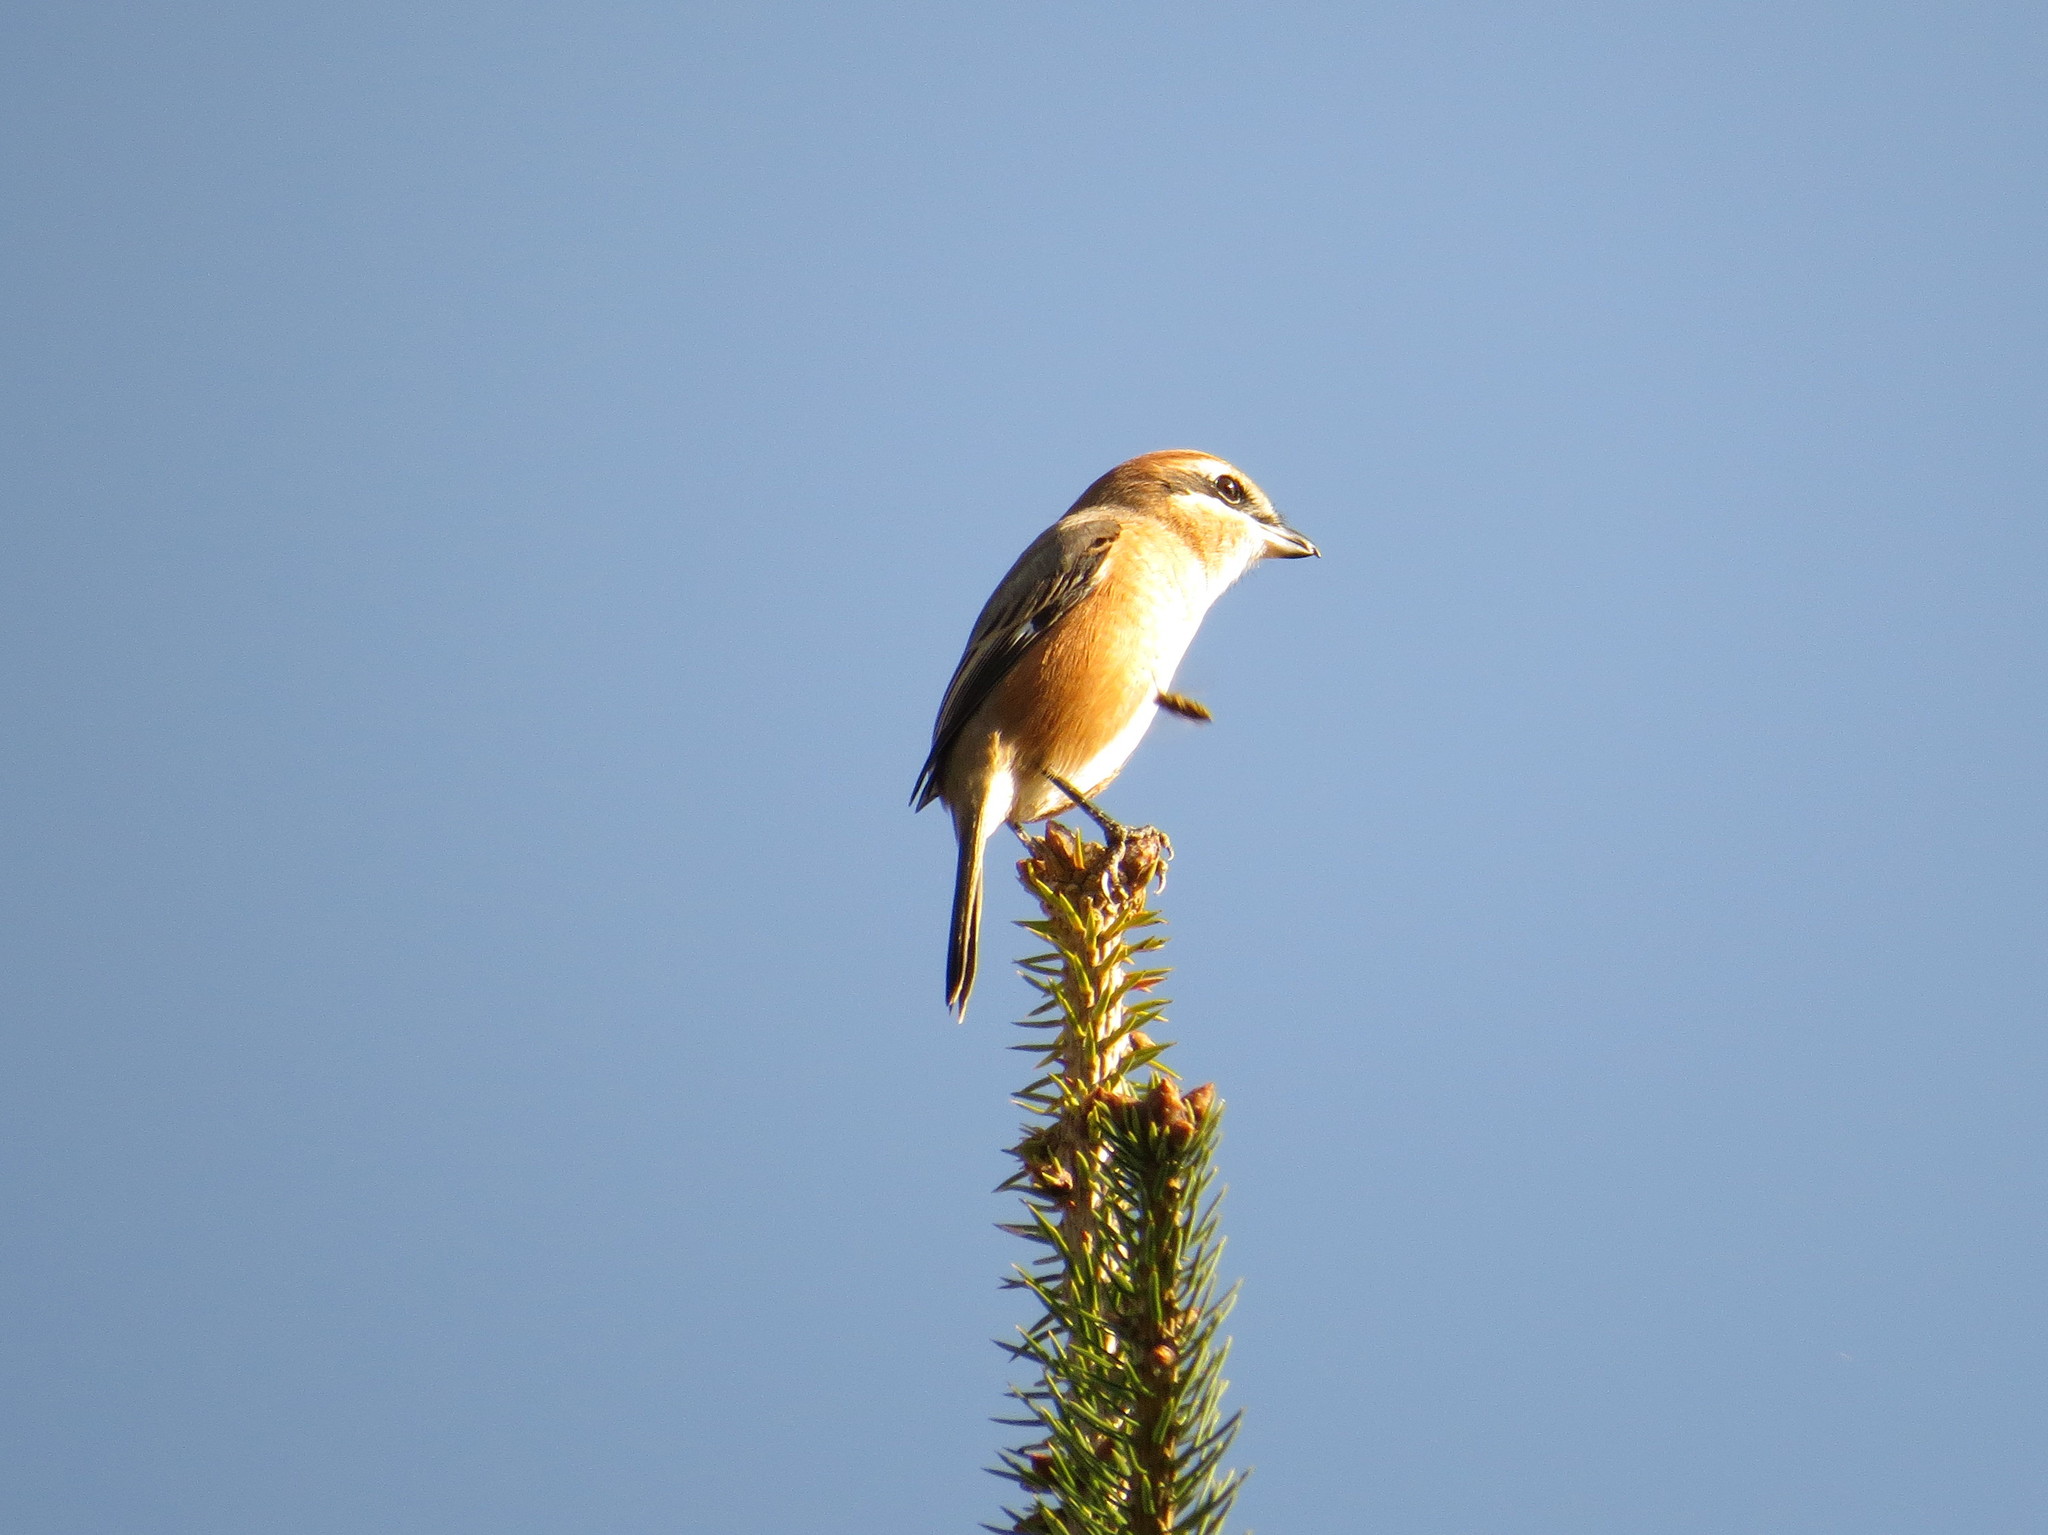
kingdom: Animalia
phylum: Chordata
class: Aves
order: Passeriformes
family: Laniidae
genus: Lanius
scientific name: Lanius bucephalus
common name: Bull-headed shrike
